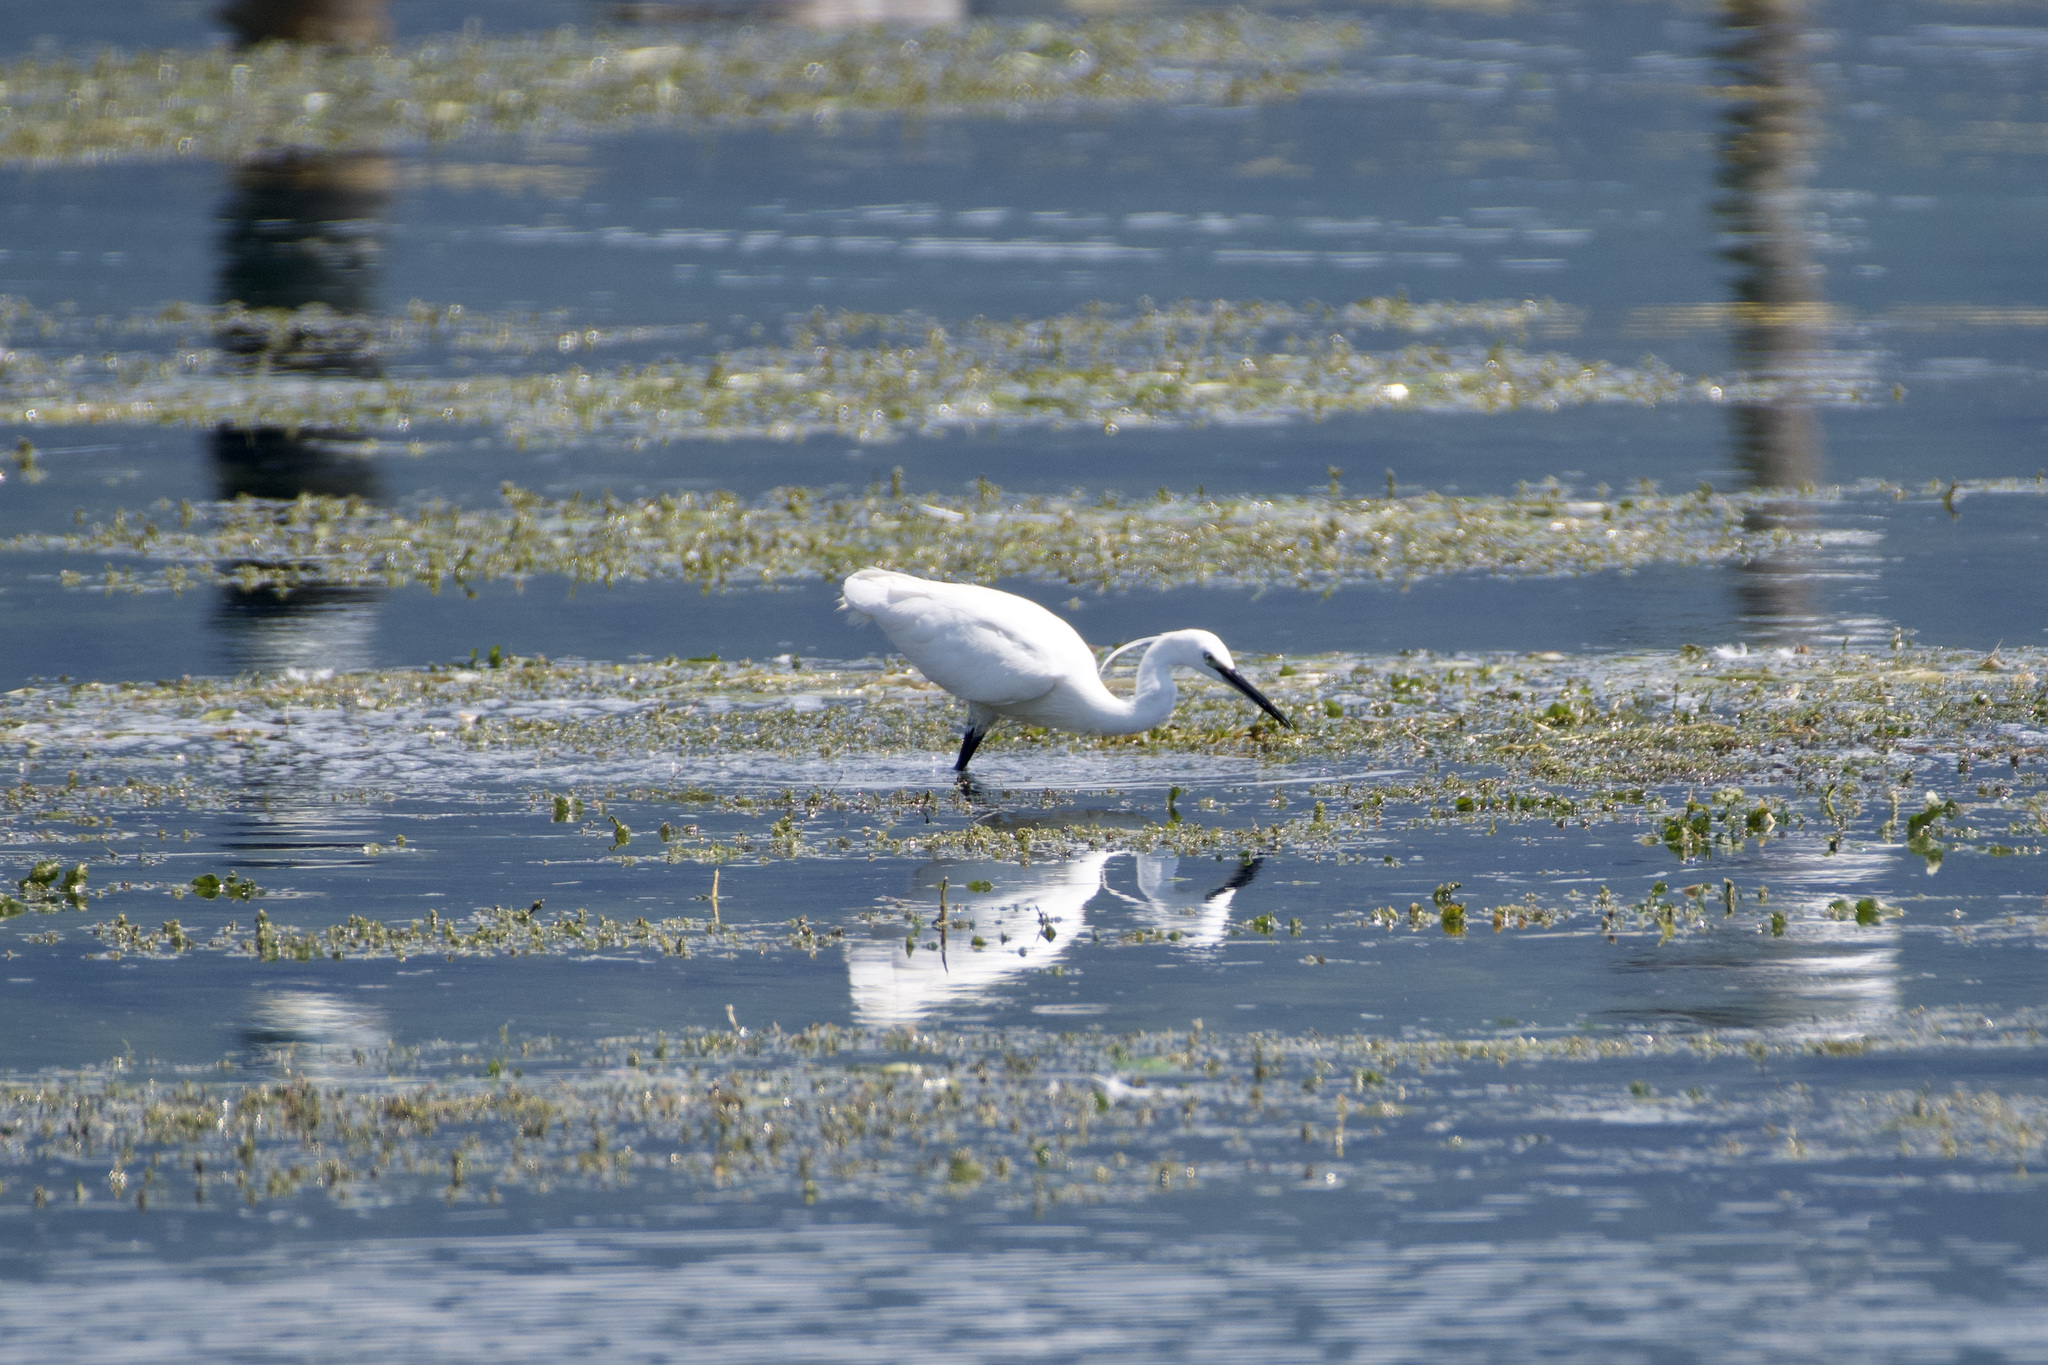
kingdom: Animalia
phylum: Chordata
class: Aves
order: Pelecaniformes
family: Ardeidae
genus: Egretta
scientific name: Egretta garzetta
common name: Little egret
